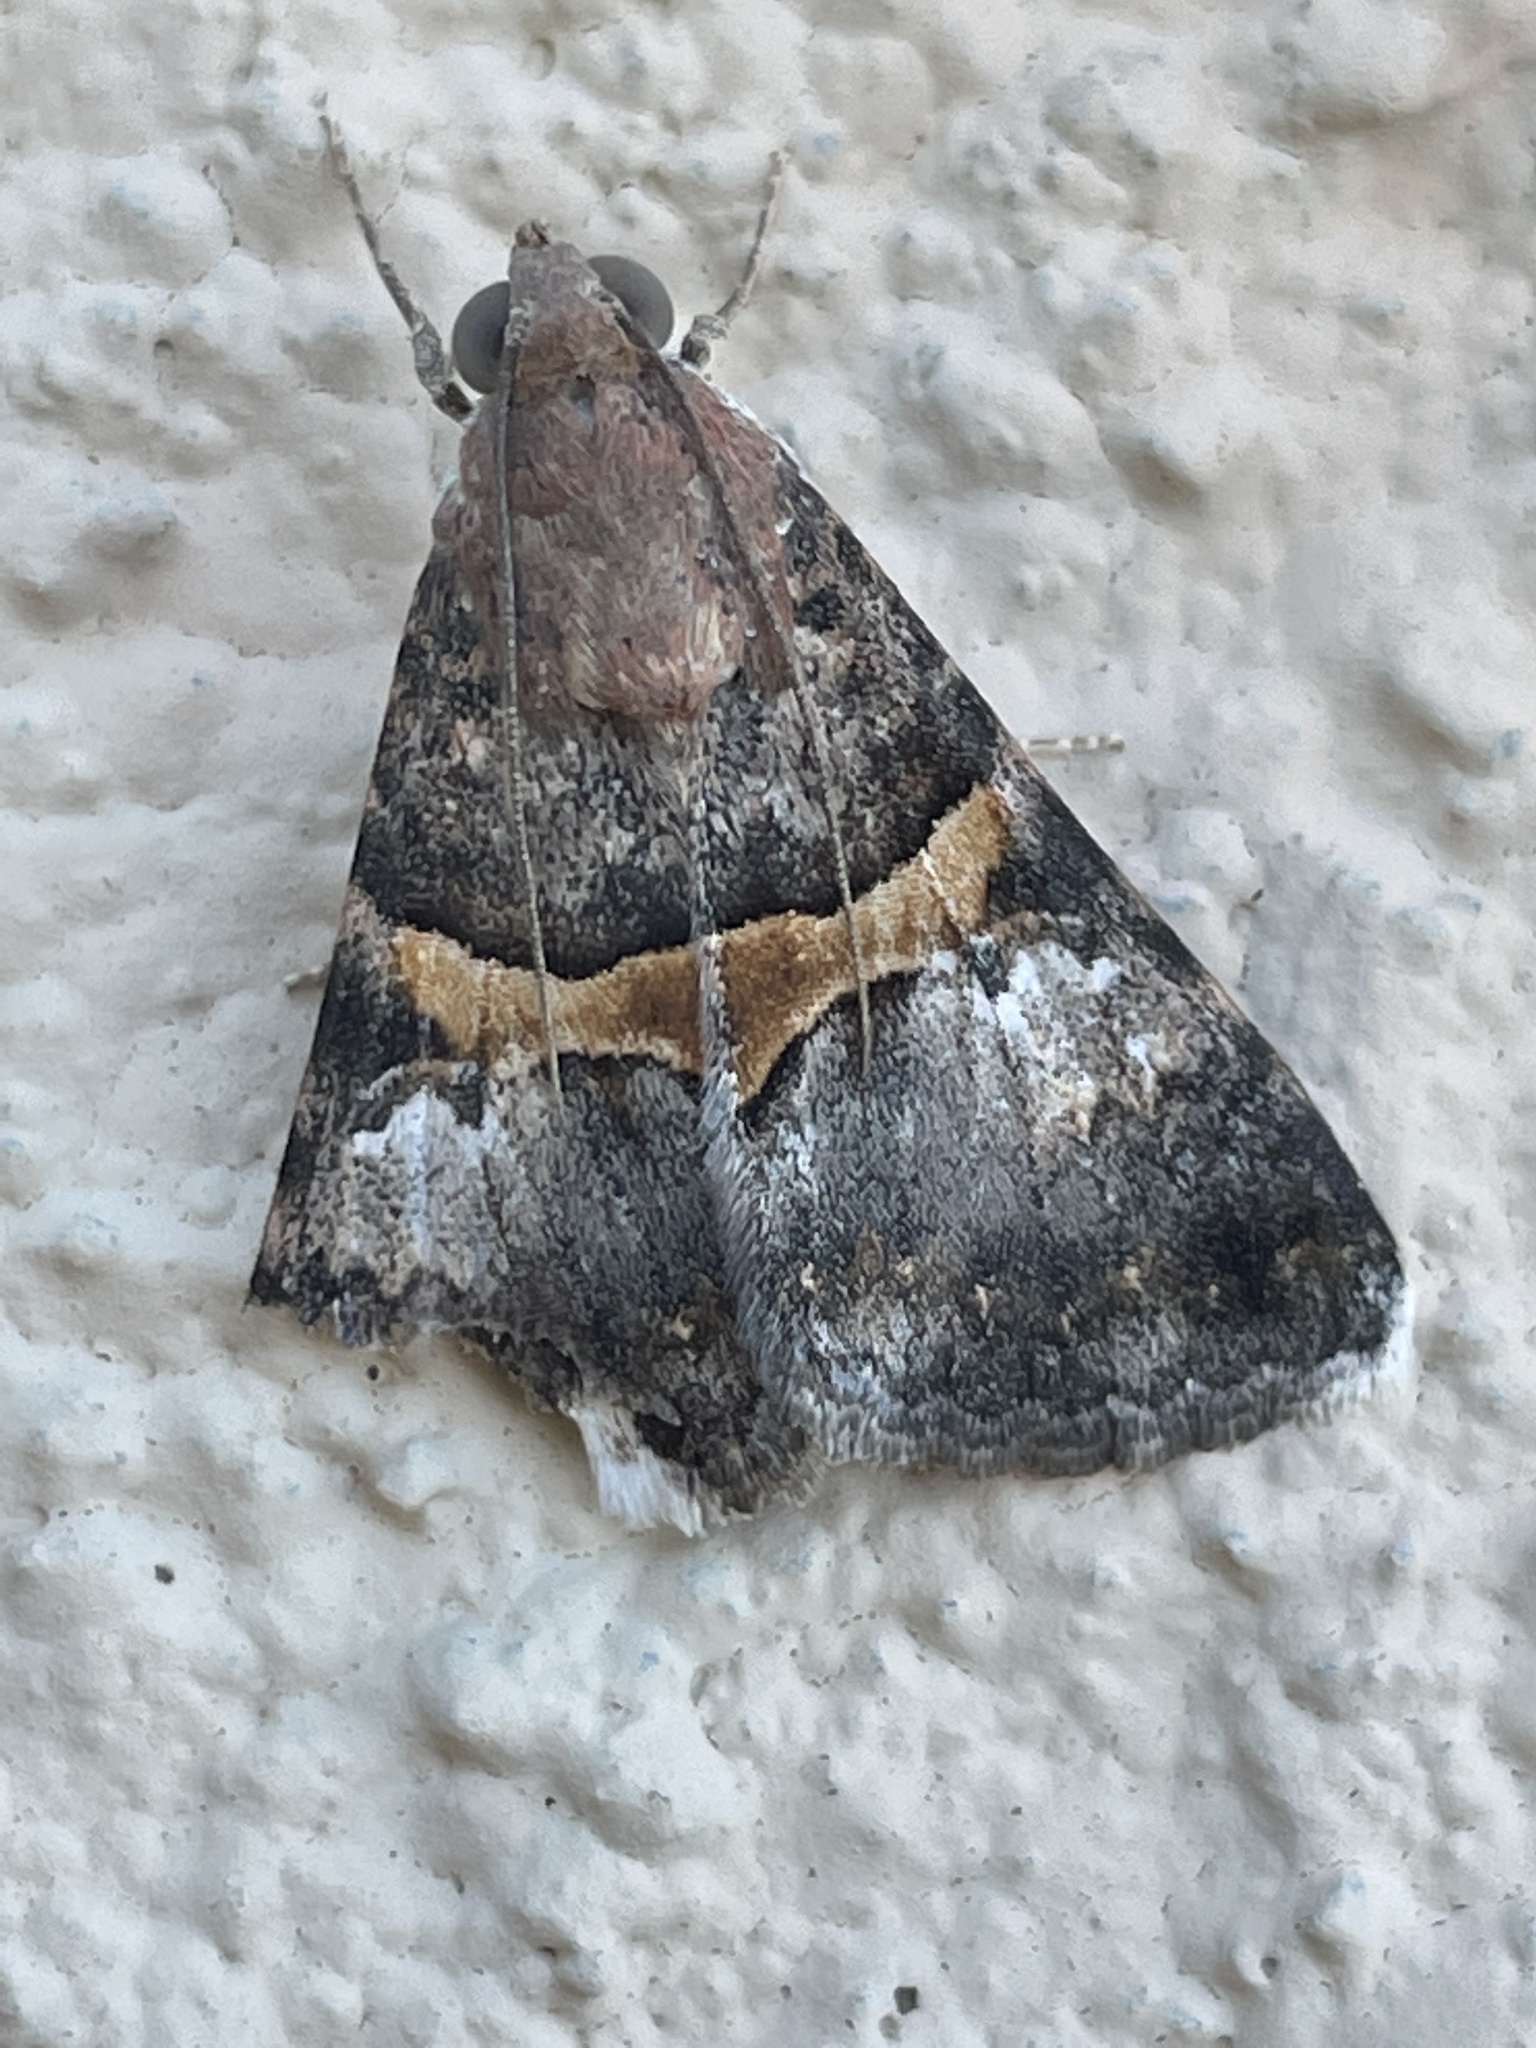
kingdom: Animalia
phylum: Arthropoda
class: Insecta
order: Lepidoptera
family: Erebidae
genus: Melipotis
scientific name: Melipotis jucunda
